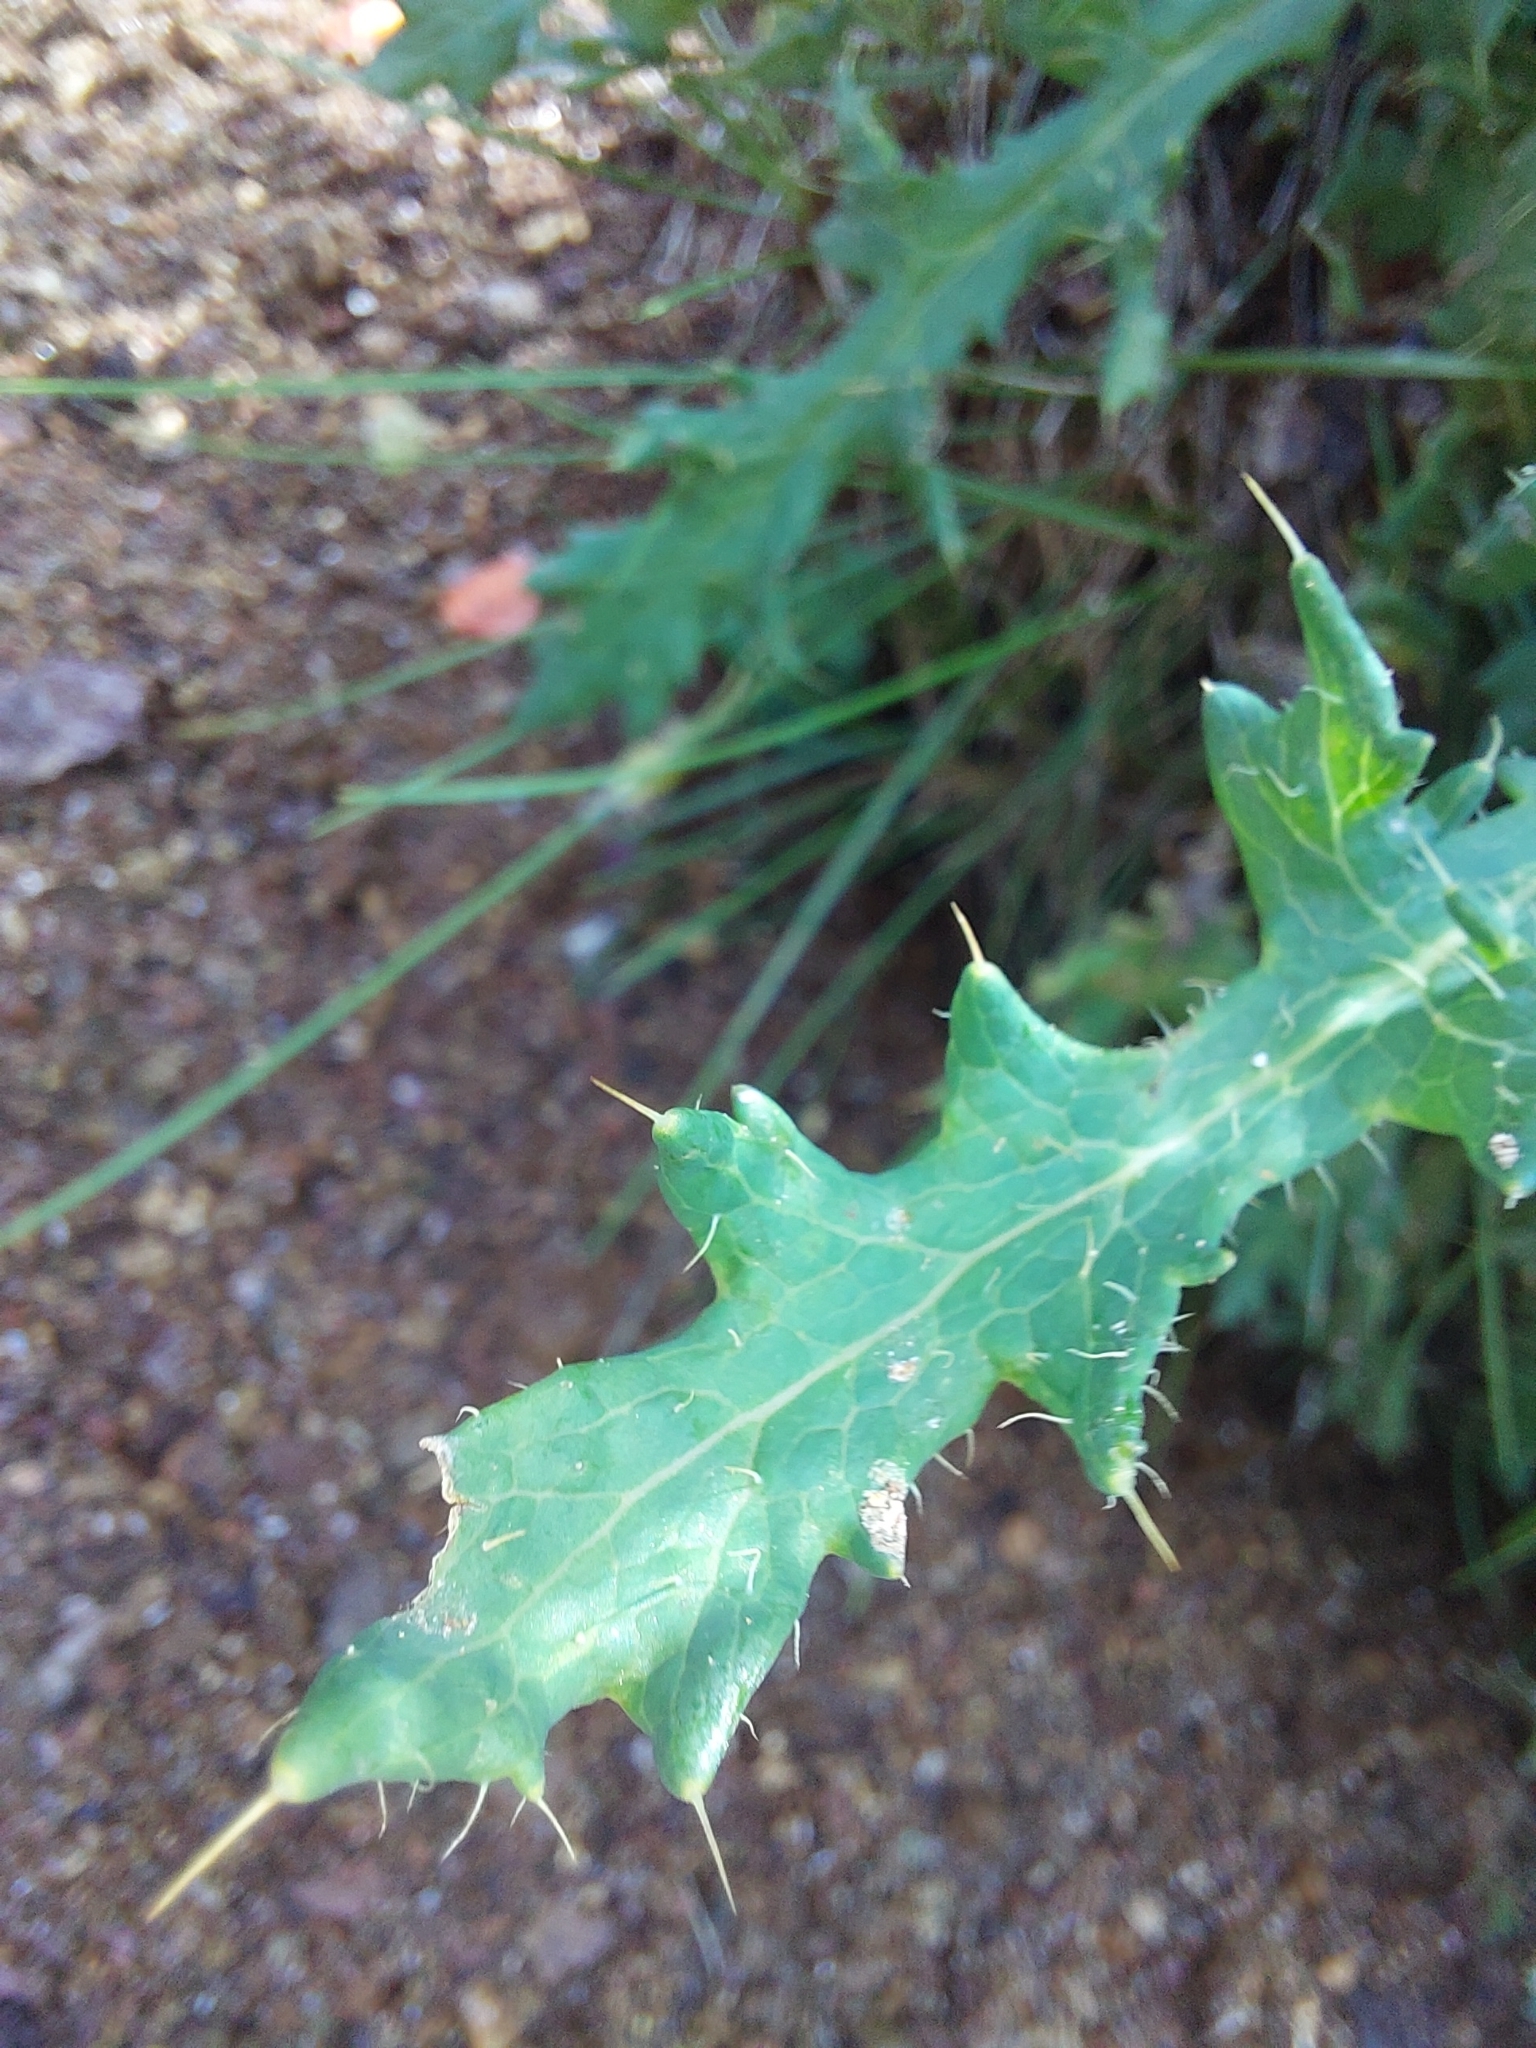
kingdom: Plantae
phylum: Tracheophyta
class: Magnoliopsida
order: Ranunculales
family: Papaveraceae
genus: Papaver
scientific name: Papaver aculeatum
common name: Bristle poppy
